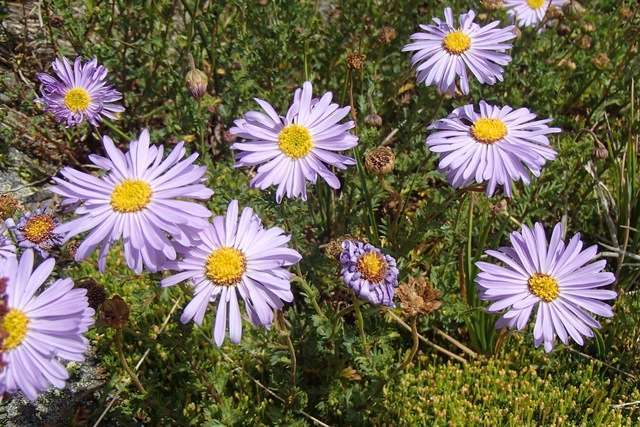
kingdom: Plantae
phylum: Tracheophyta
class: Magnoliopsida
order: Asterales
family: Asteraceae
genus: Brachyscome
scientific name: Brachyscome rigidula
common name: Leafy daisy
